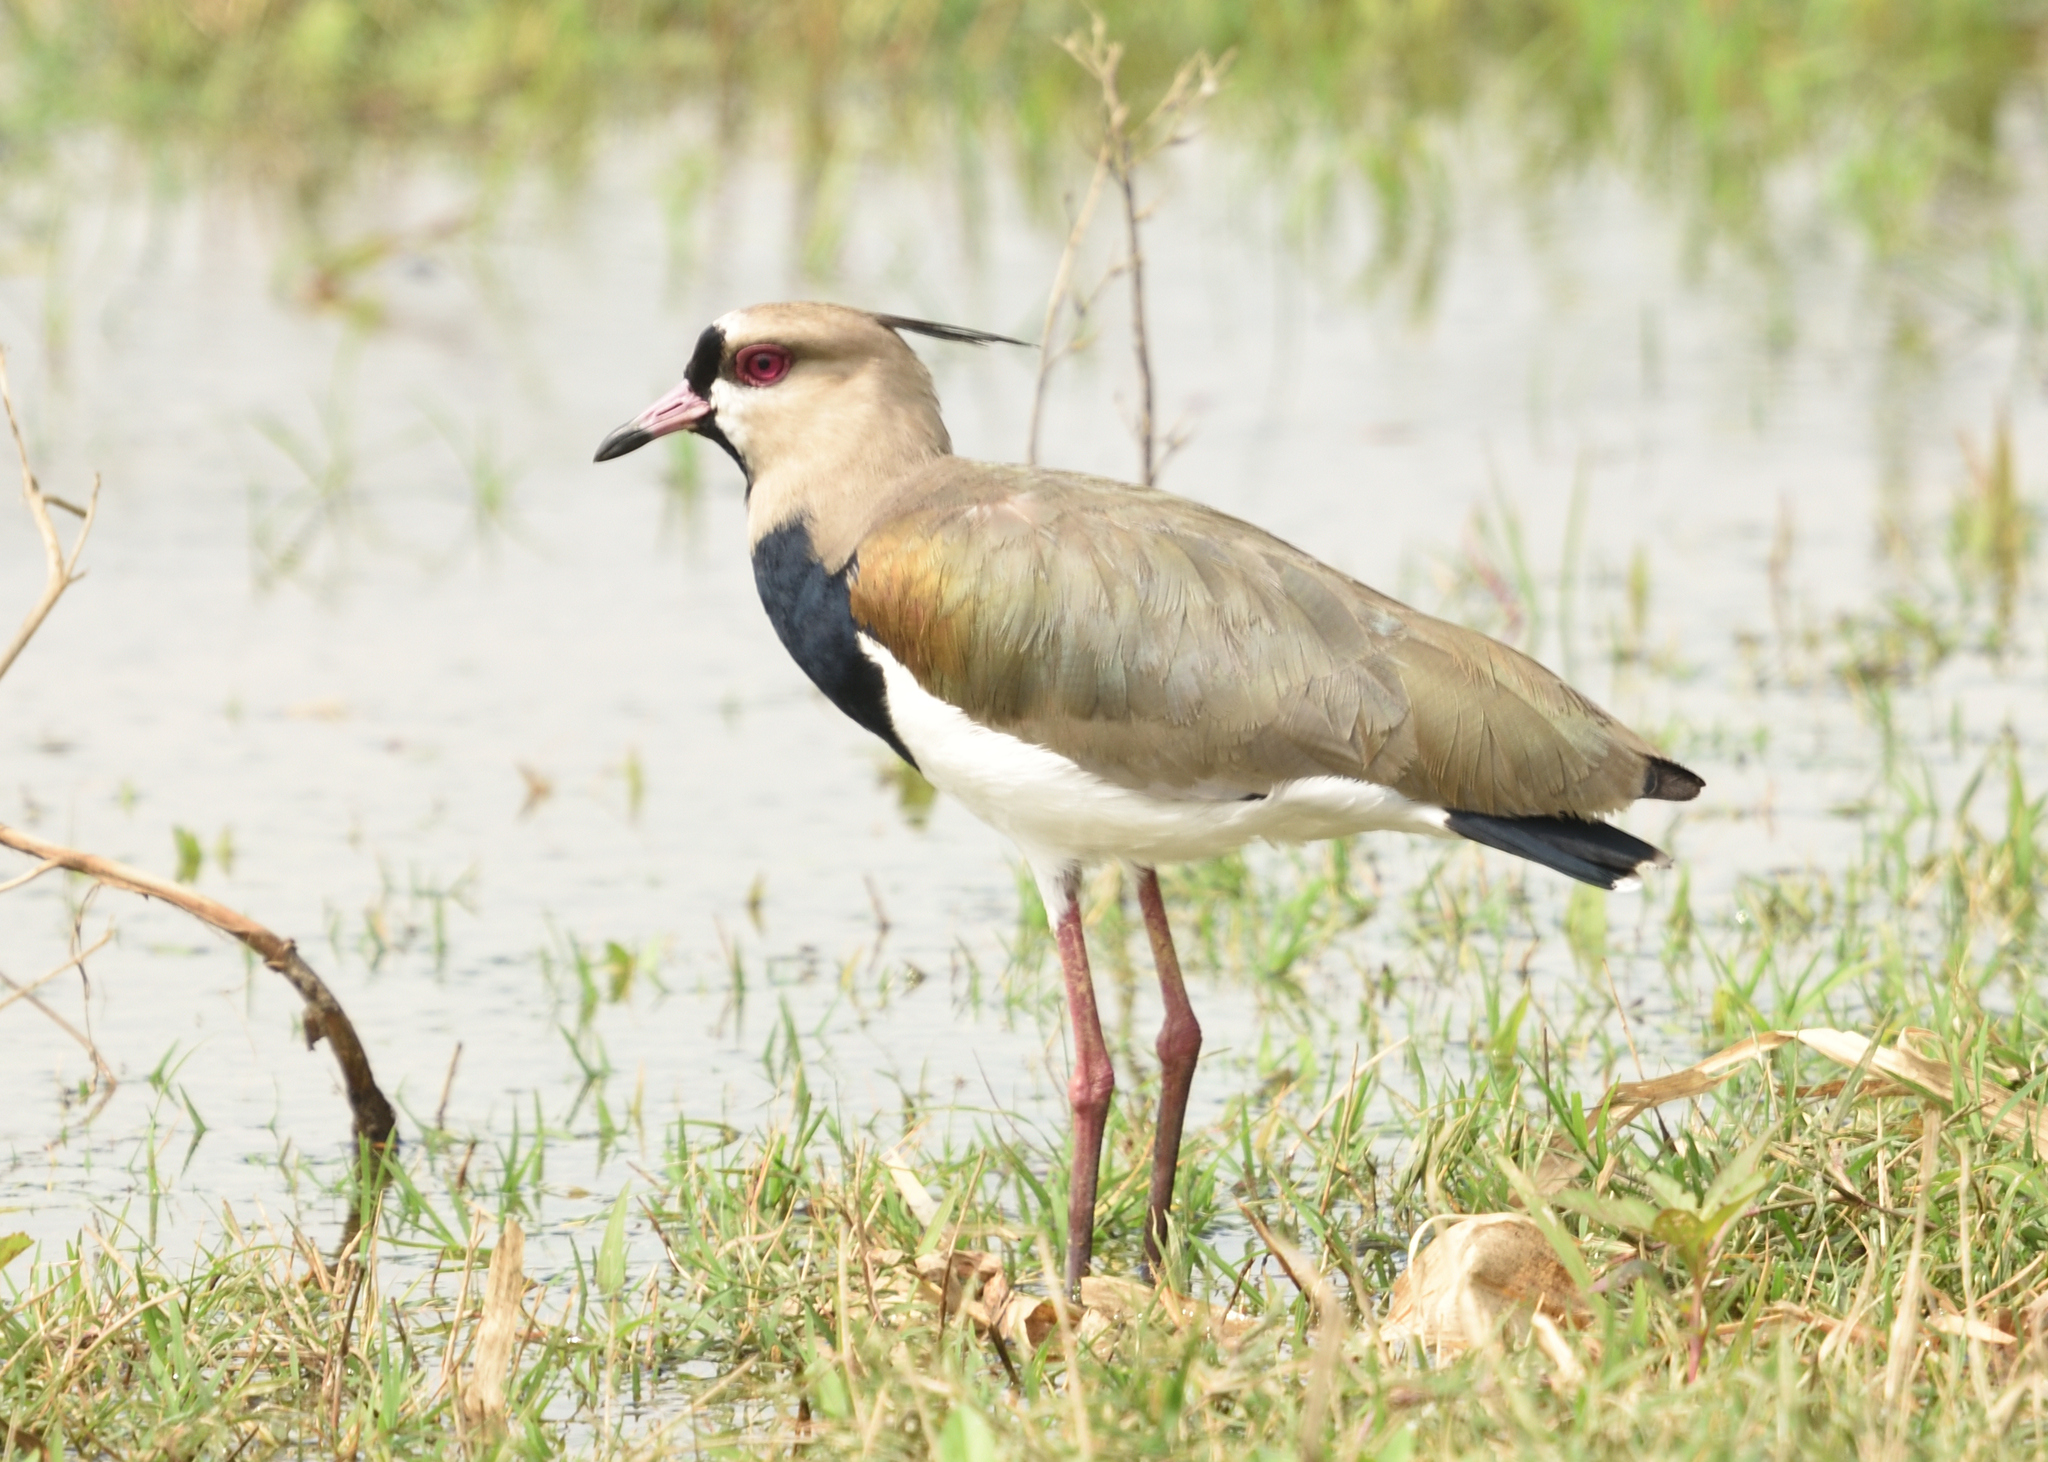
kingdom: Animalia
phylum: Chordata
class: Aves
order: Charadriiformes
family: Charadriidae
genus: Vanellus
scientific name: Vanellus chilensis
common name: Southern lapwing
